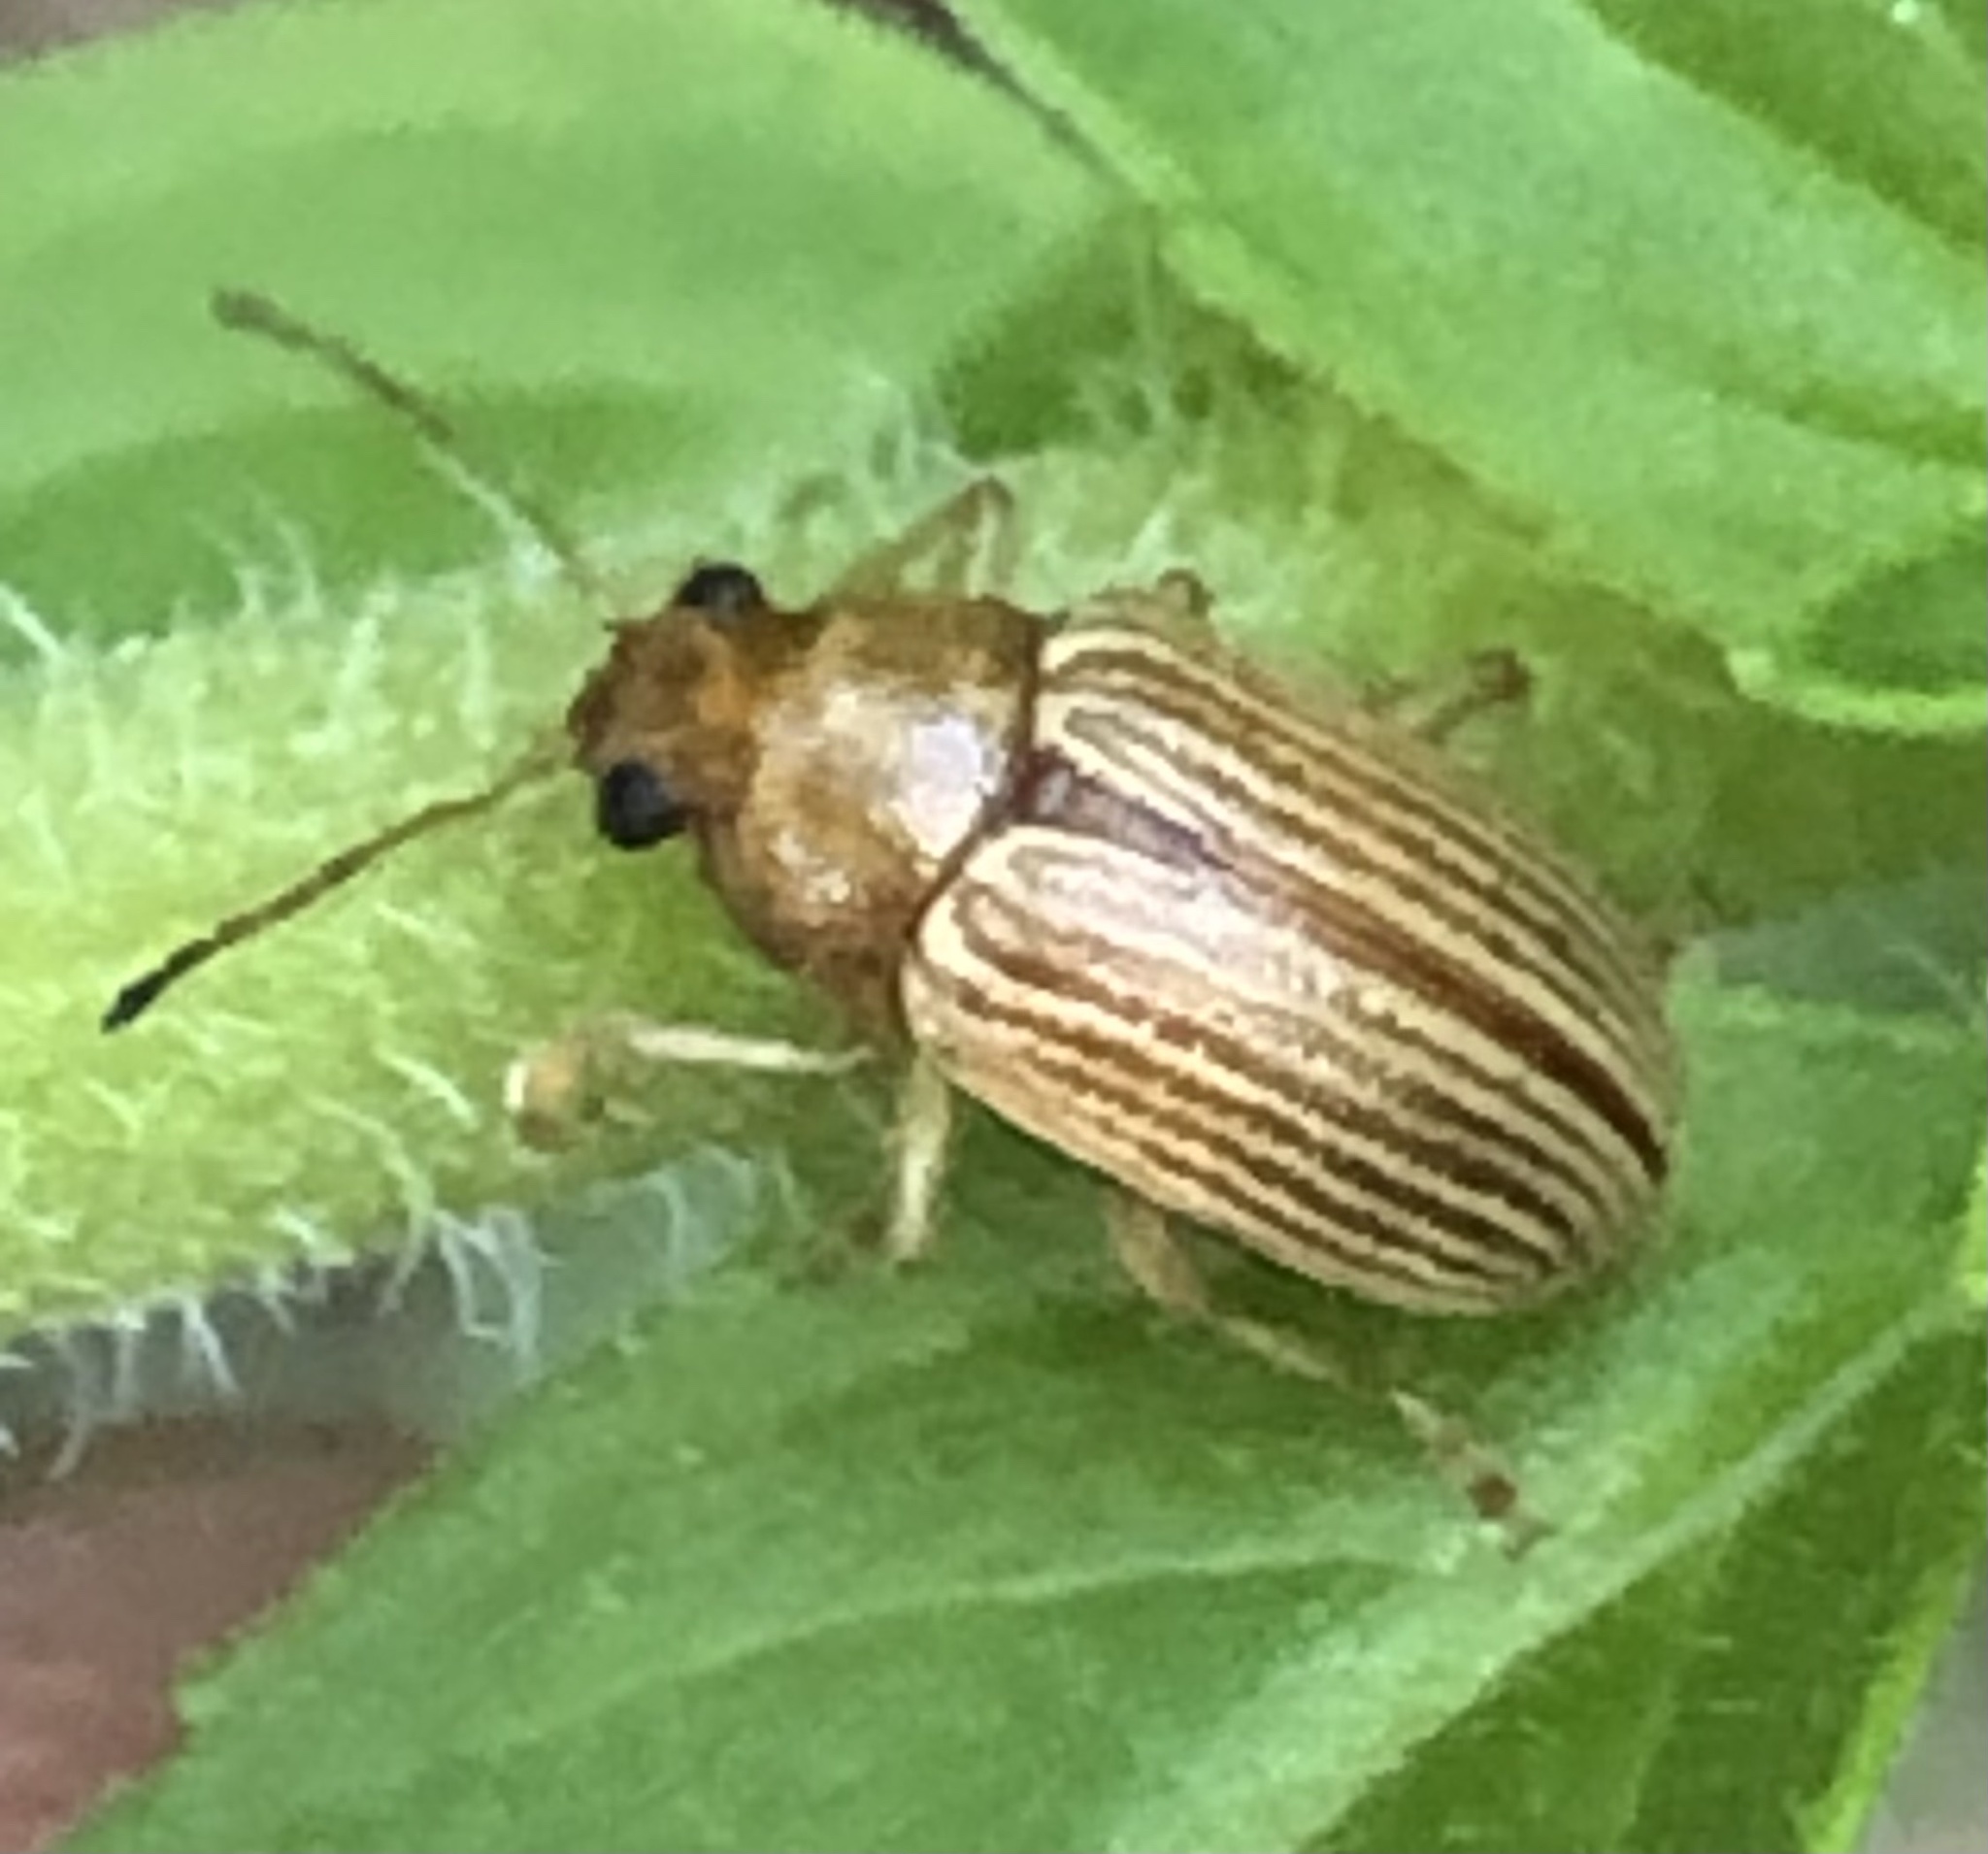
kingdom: Animalia
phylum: Arthropoda
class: Insecta
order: Coleoptera
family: Chrysomelidae
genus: Colaspis
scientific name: Colaspis brunnea
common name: Grape colaspis
